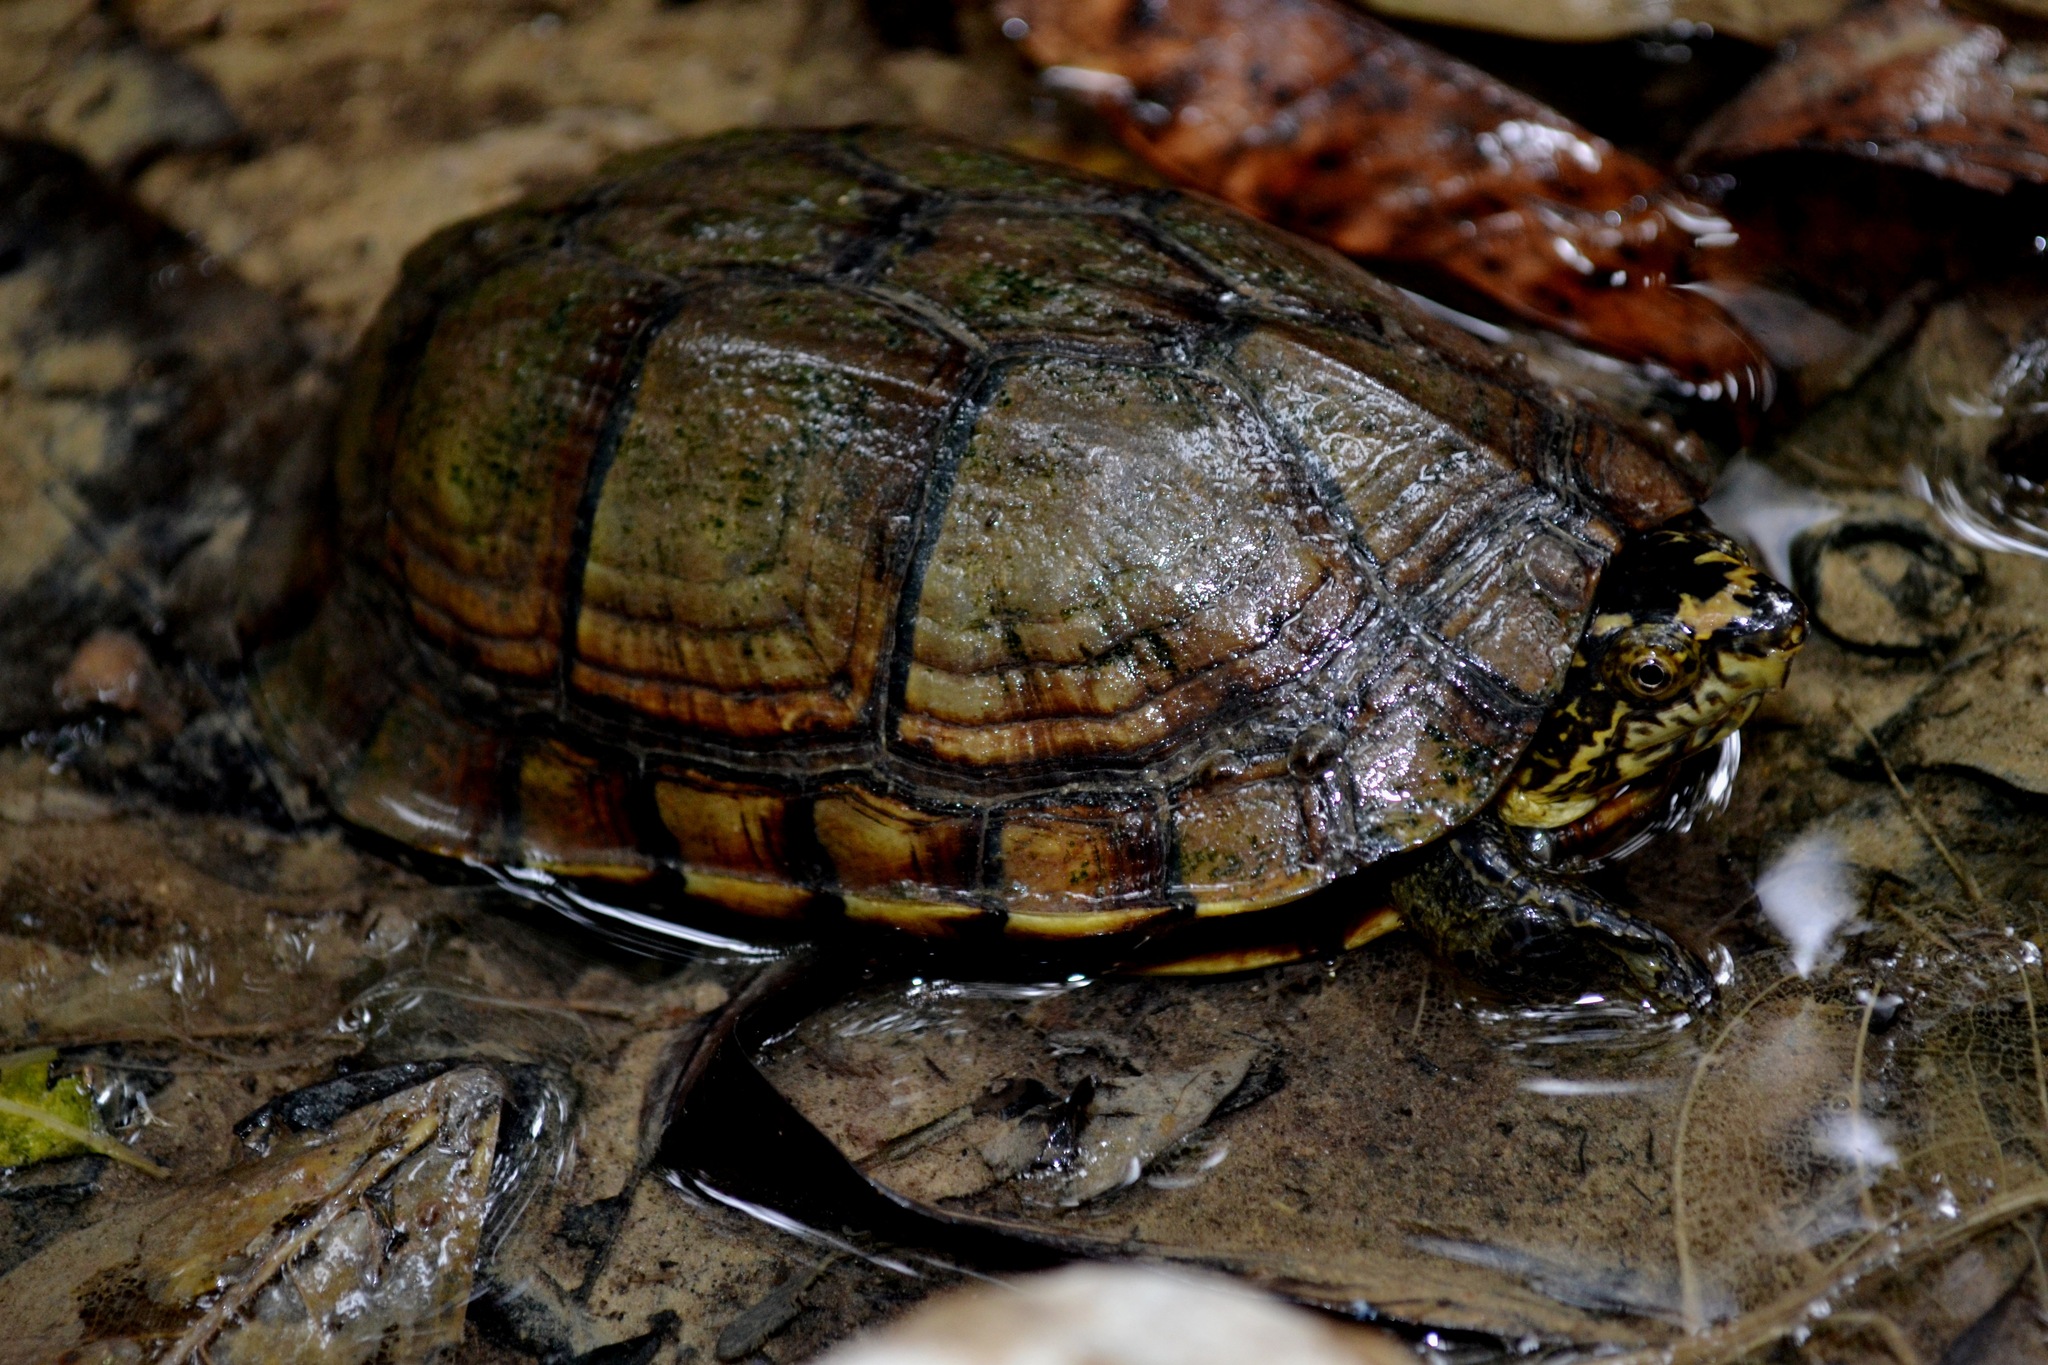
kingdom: Animalia
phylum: Chordata
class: Testudines
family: Kinosternidae
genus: Kinosternon
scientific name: Kinosternon scorpioides
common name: Scorpion mud turtle
